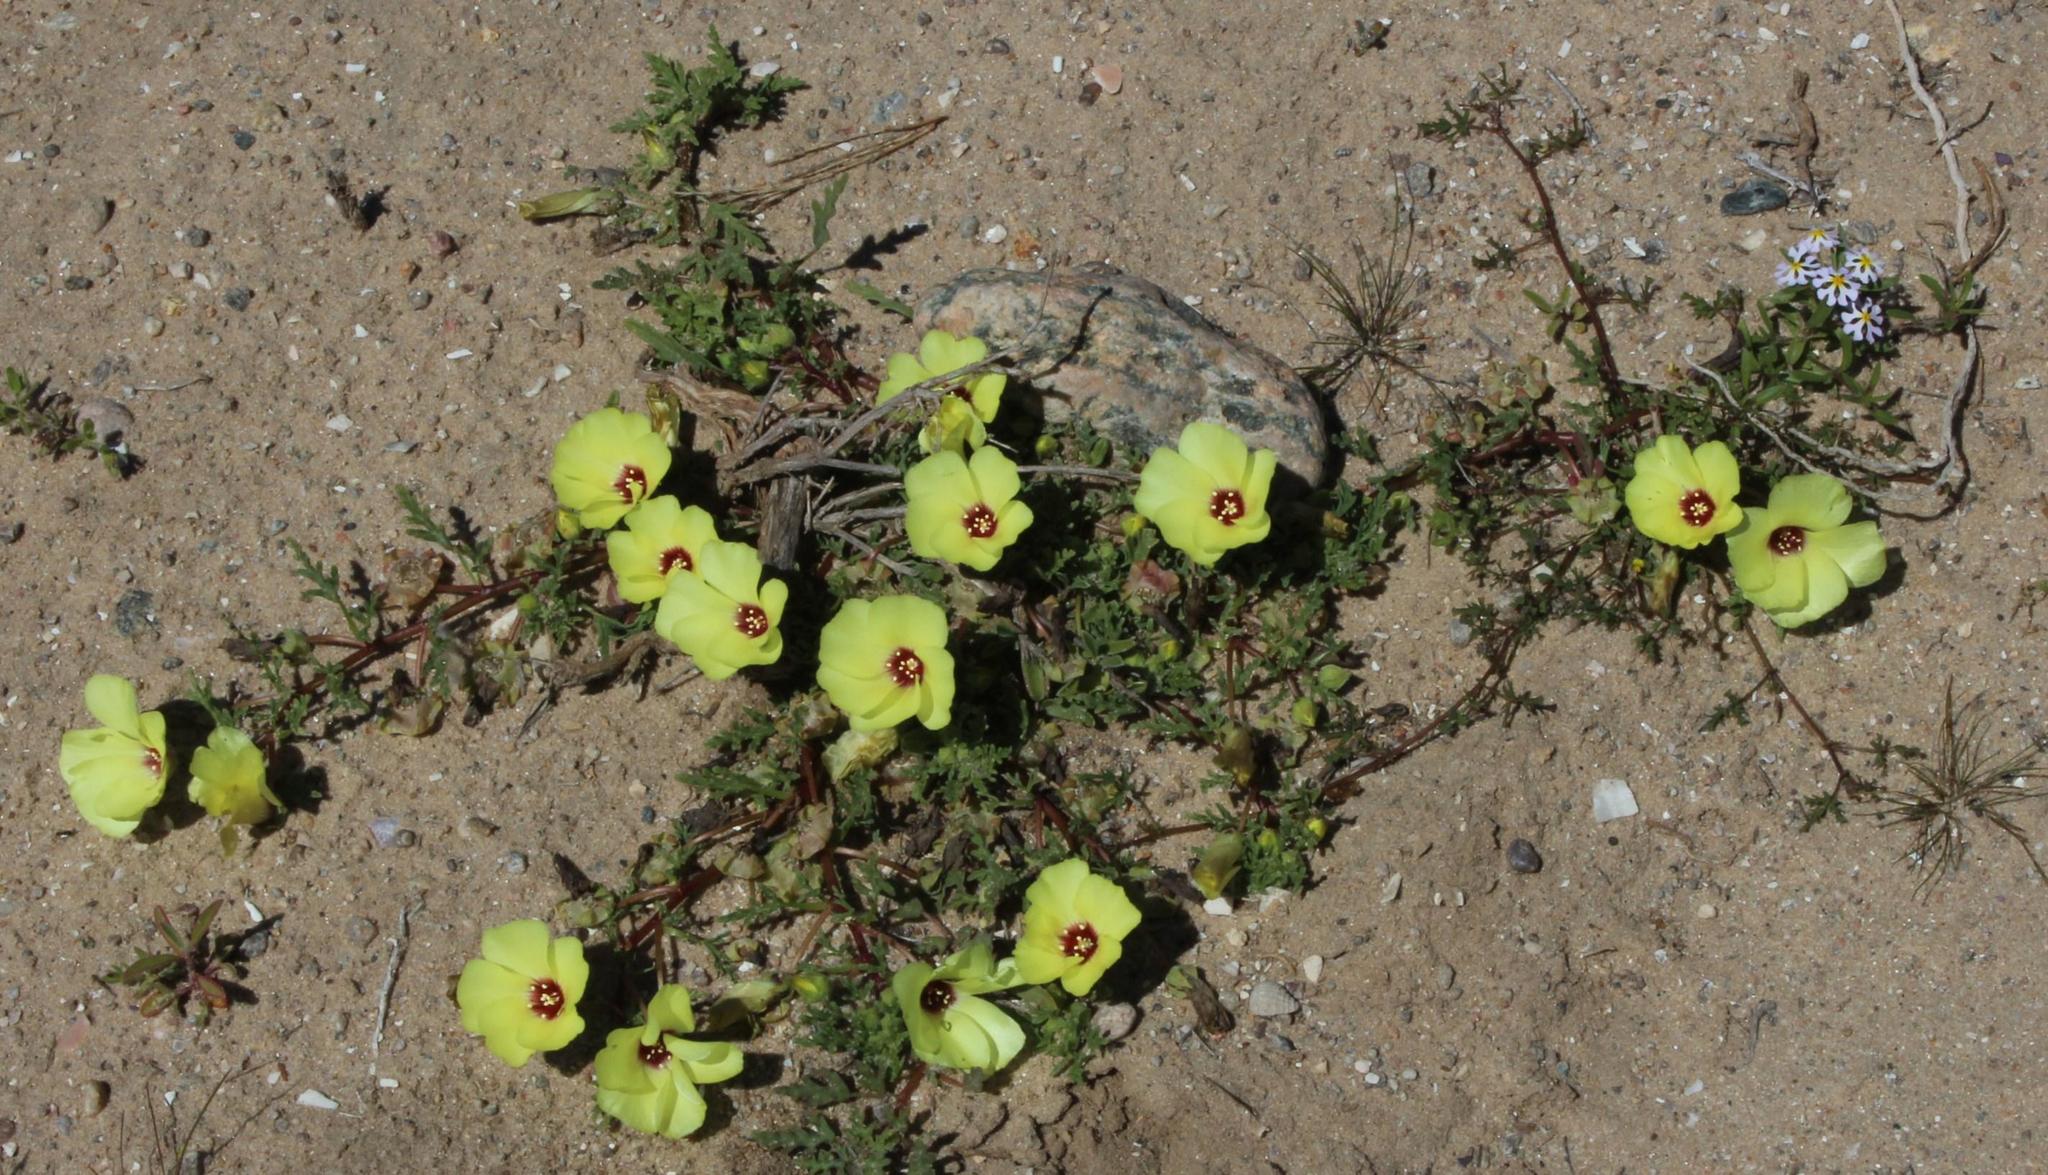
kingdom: Plantae
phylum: Tracheophyta
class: Magnoliopsida
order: Malvales
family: Neuradaceae
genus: Grielum
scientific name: Grielum humifusum
